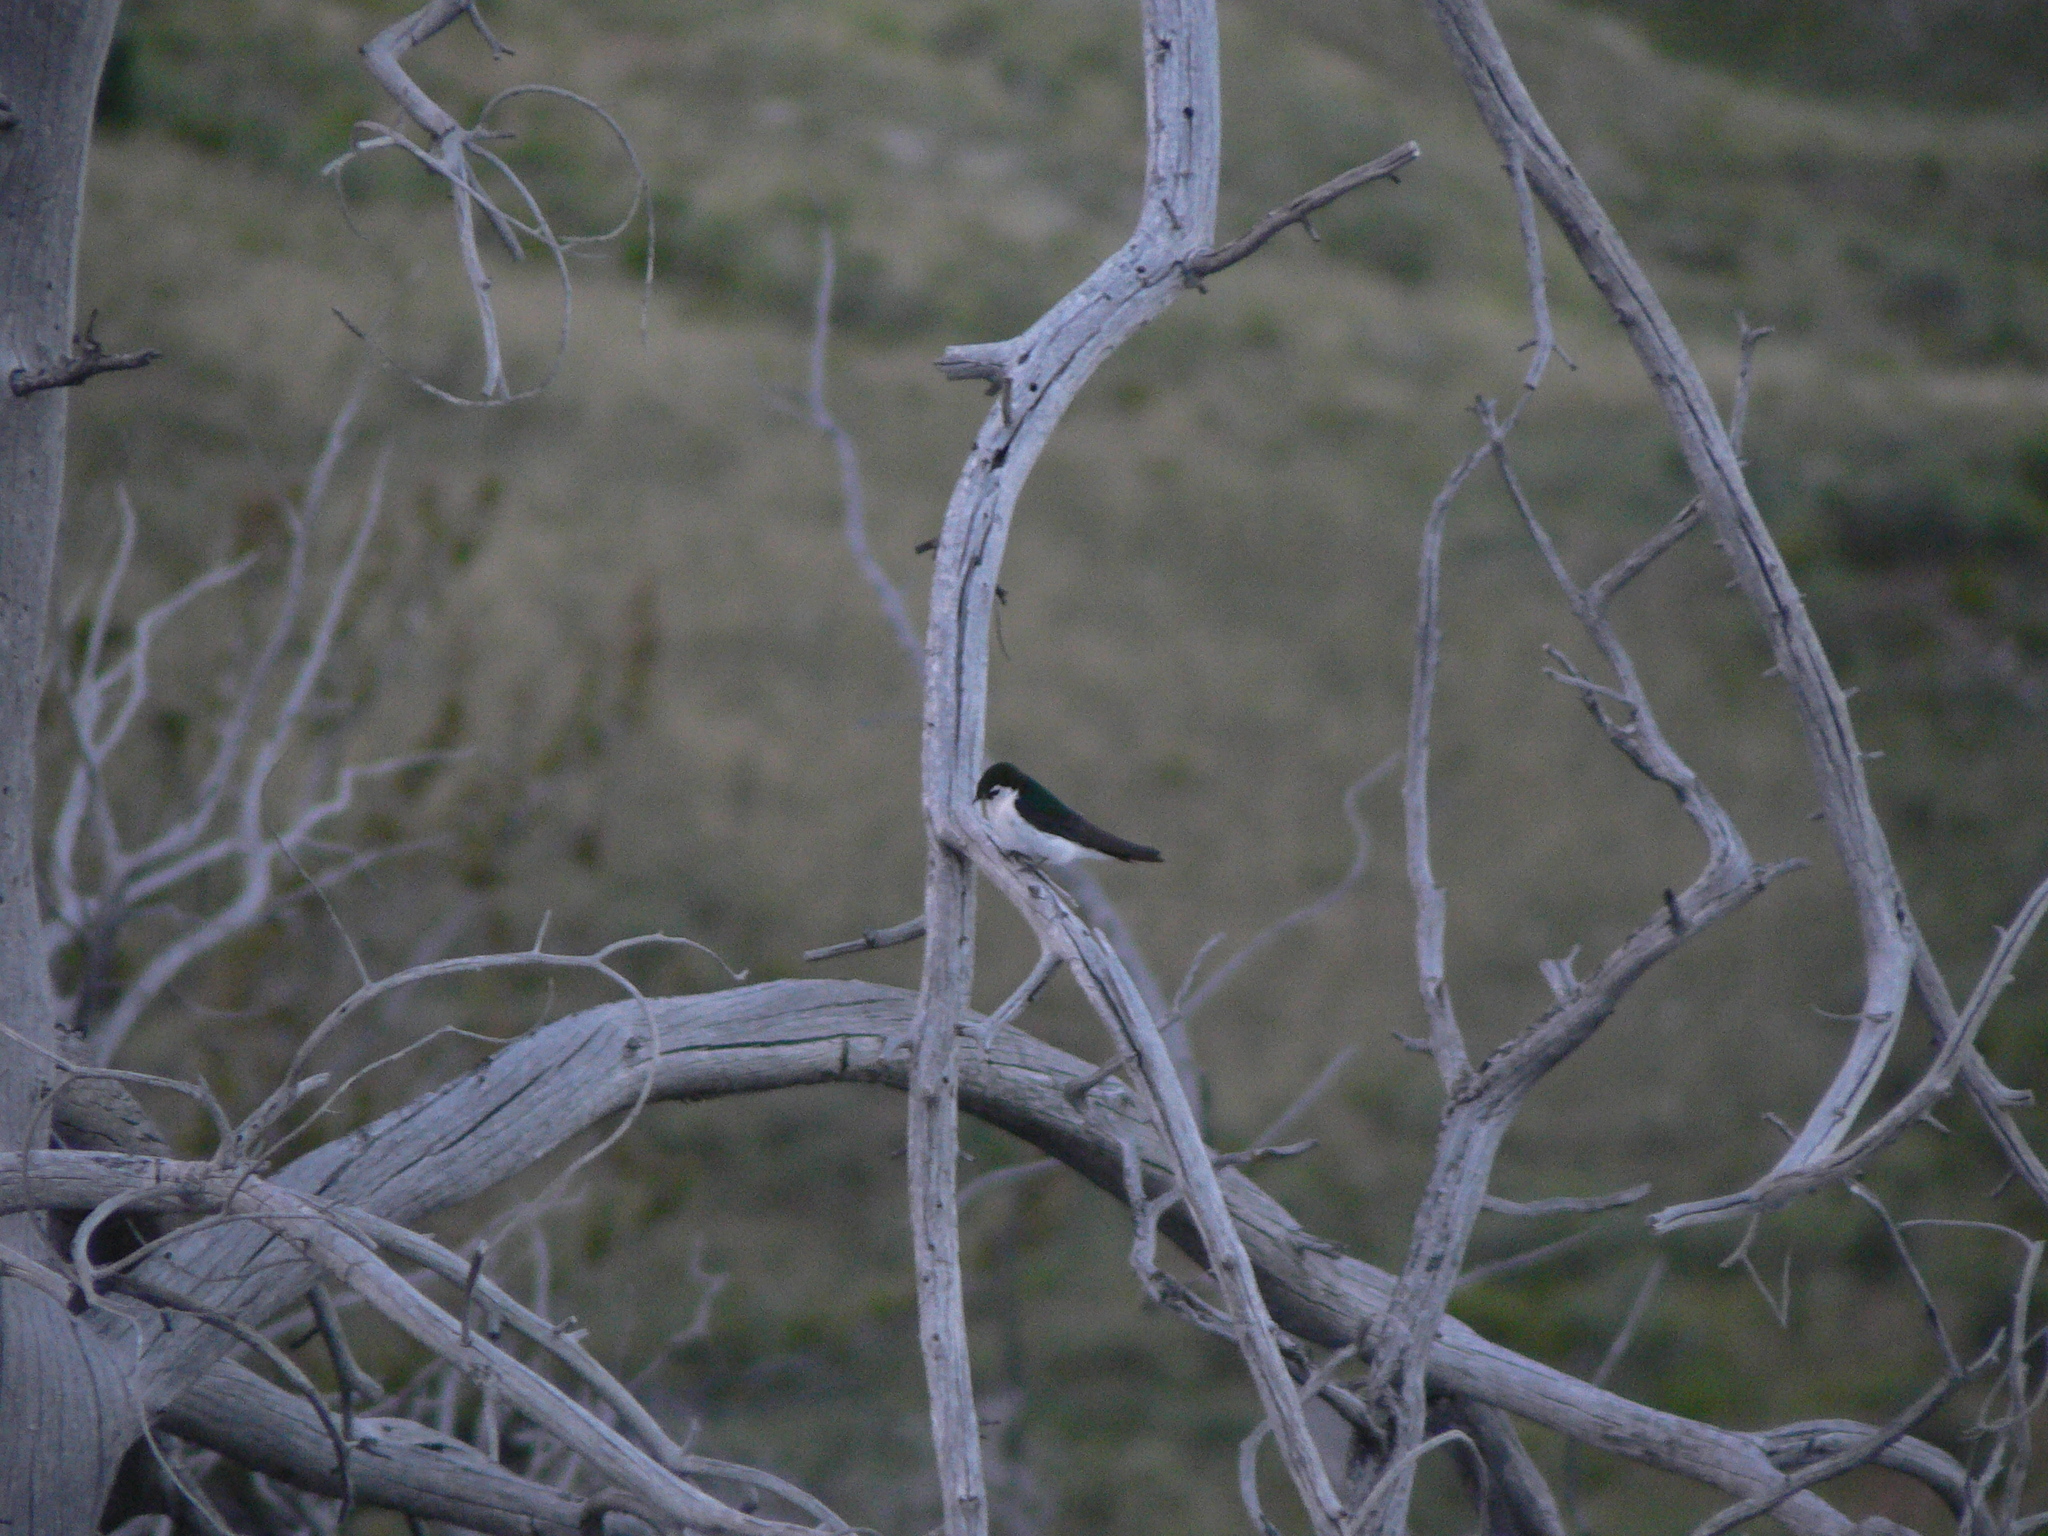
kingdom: Animalia
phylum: Chordata
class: Aves
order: Passeriformes
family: Hirundinidae
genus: Tachycineta
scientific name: Tachycineta thalassina
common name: Violet-green swallow
